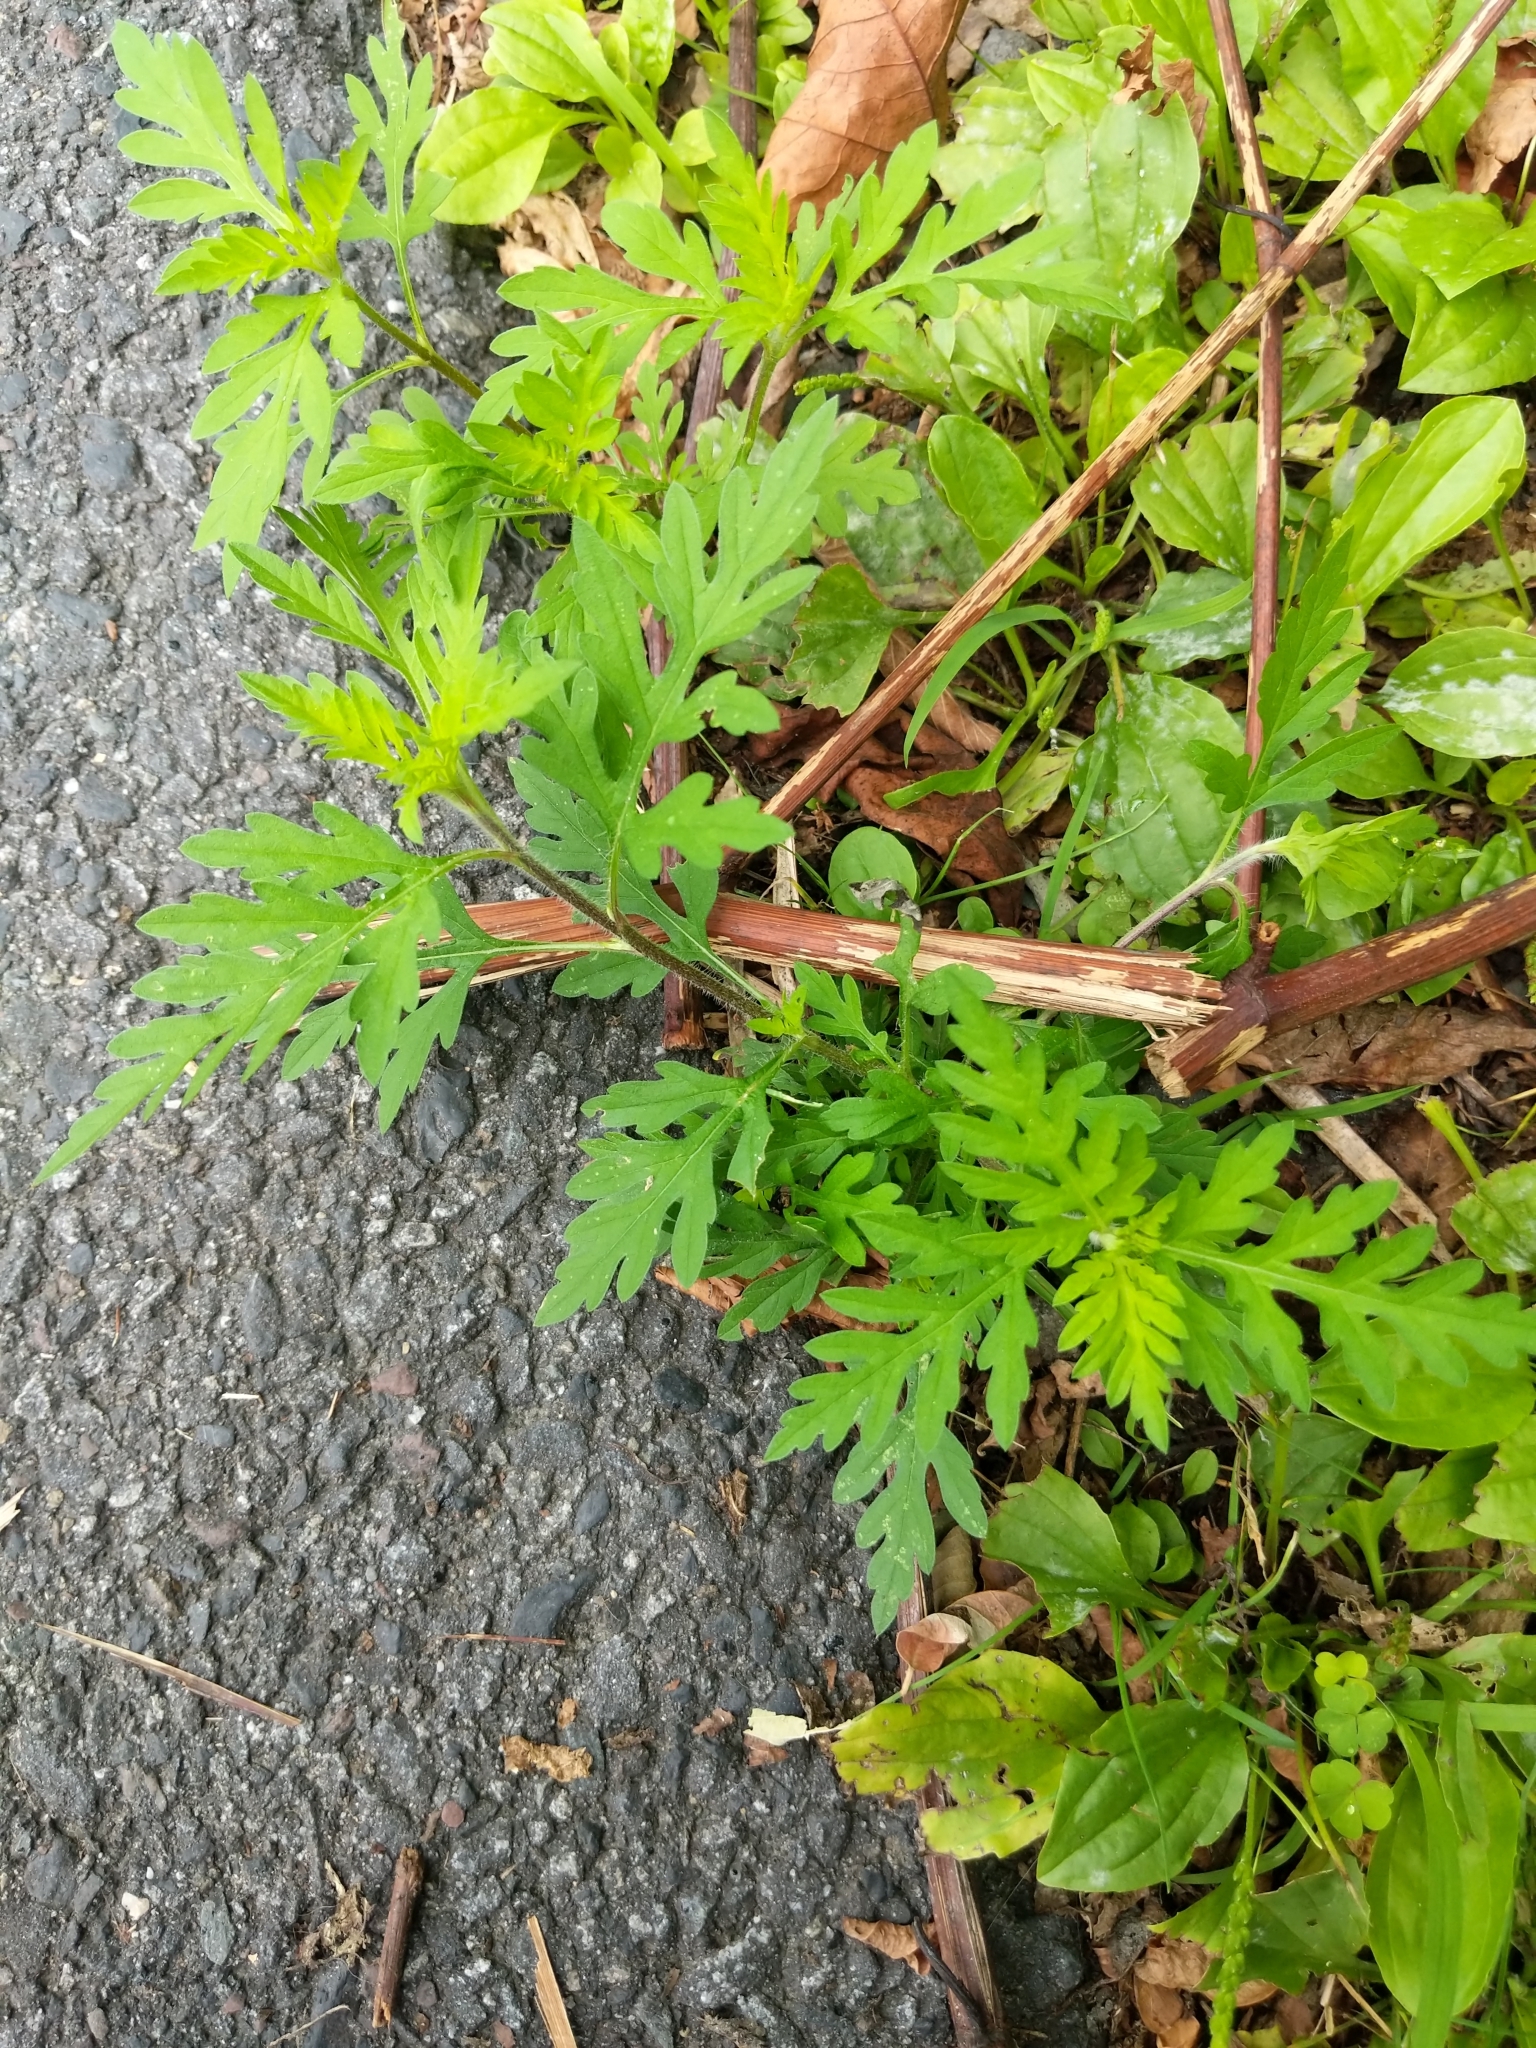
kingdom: Plantae
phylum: Tracheophyta
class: Magnoliopsida
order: Asterales
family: Asteraceae
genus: Ambrosia
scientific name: Ambrosia artemisiifolia
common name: Annual ragweed
